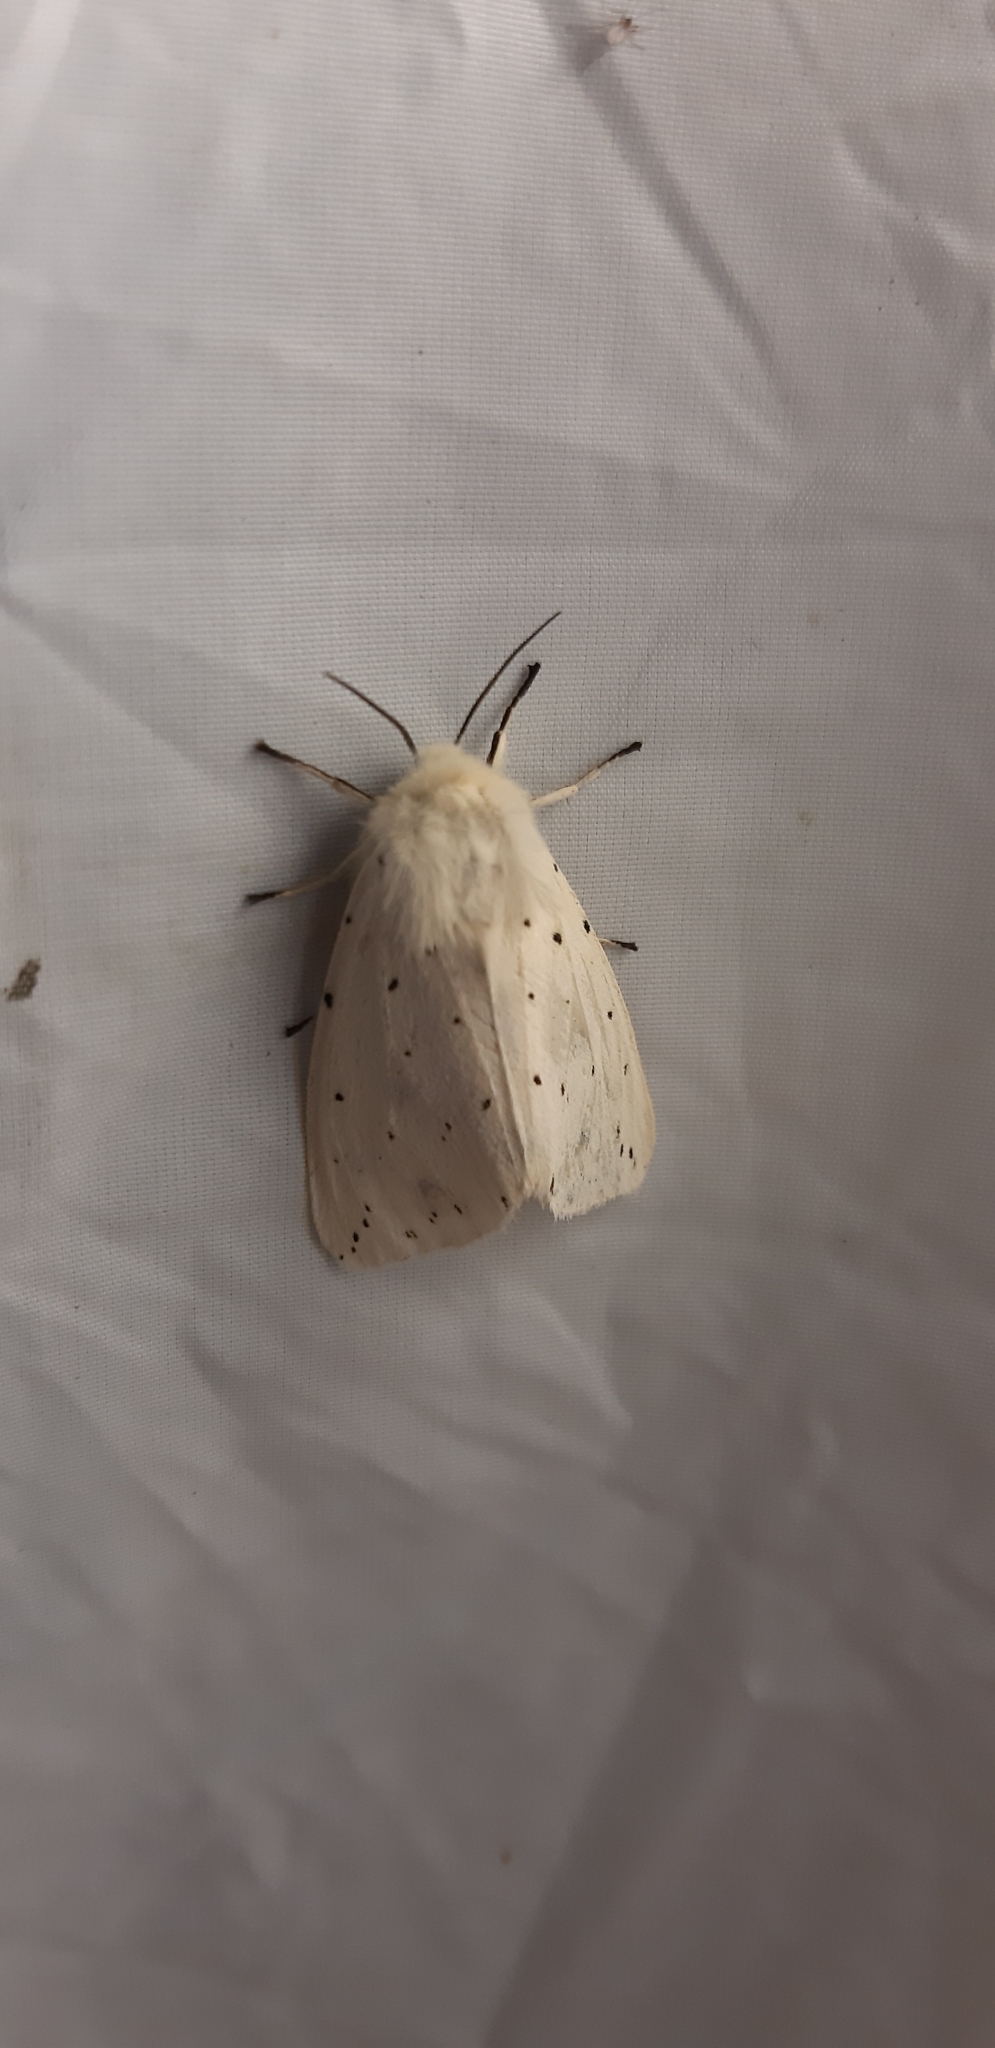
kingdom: Animalia
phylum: Arthropoda
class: Insecta
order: Lepidoptera
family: Erebidae
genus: Spilosoma
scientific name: Spilosoma lubricipeda
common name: White ermine
